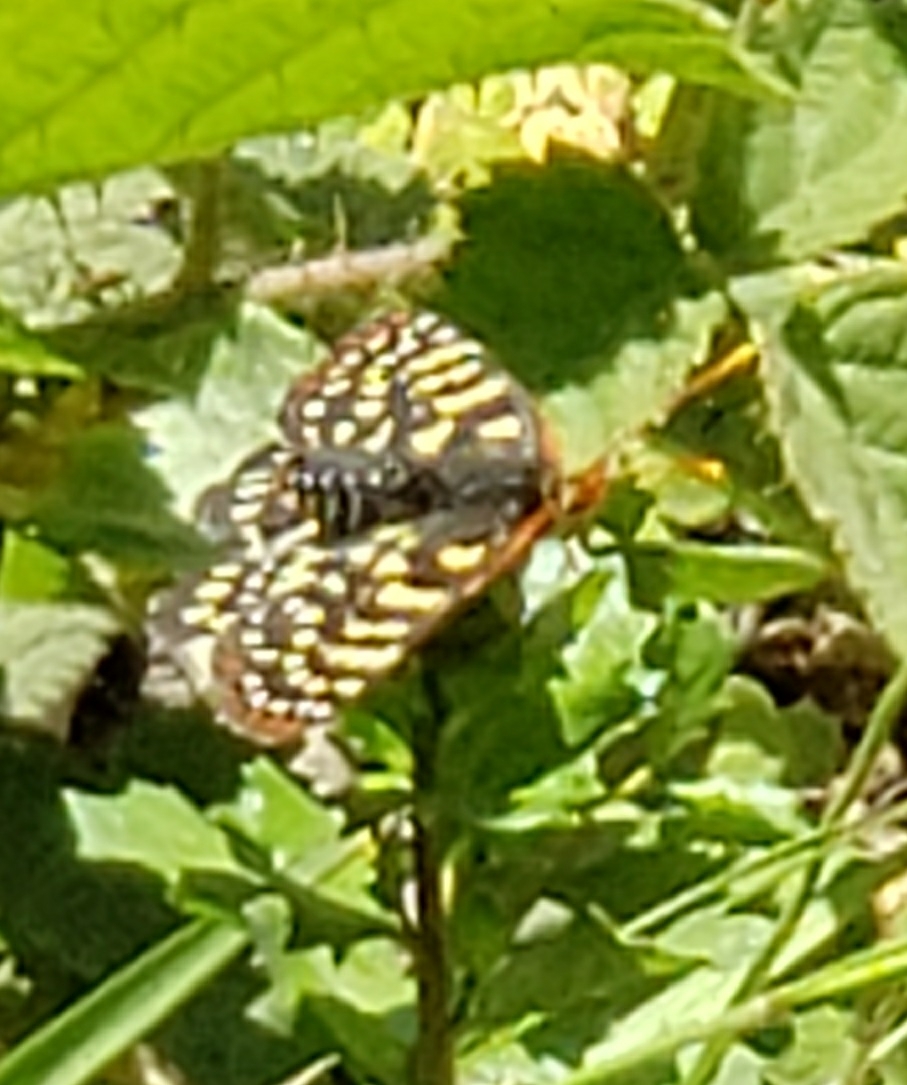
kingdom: Animalia
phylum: Arthropoda
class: Insecta
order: Lepidoptera
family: Nymphalidae
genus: Occidryas
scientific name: Occidryas chalcedona
